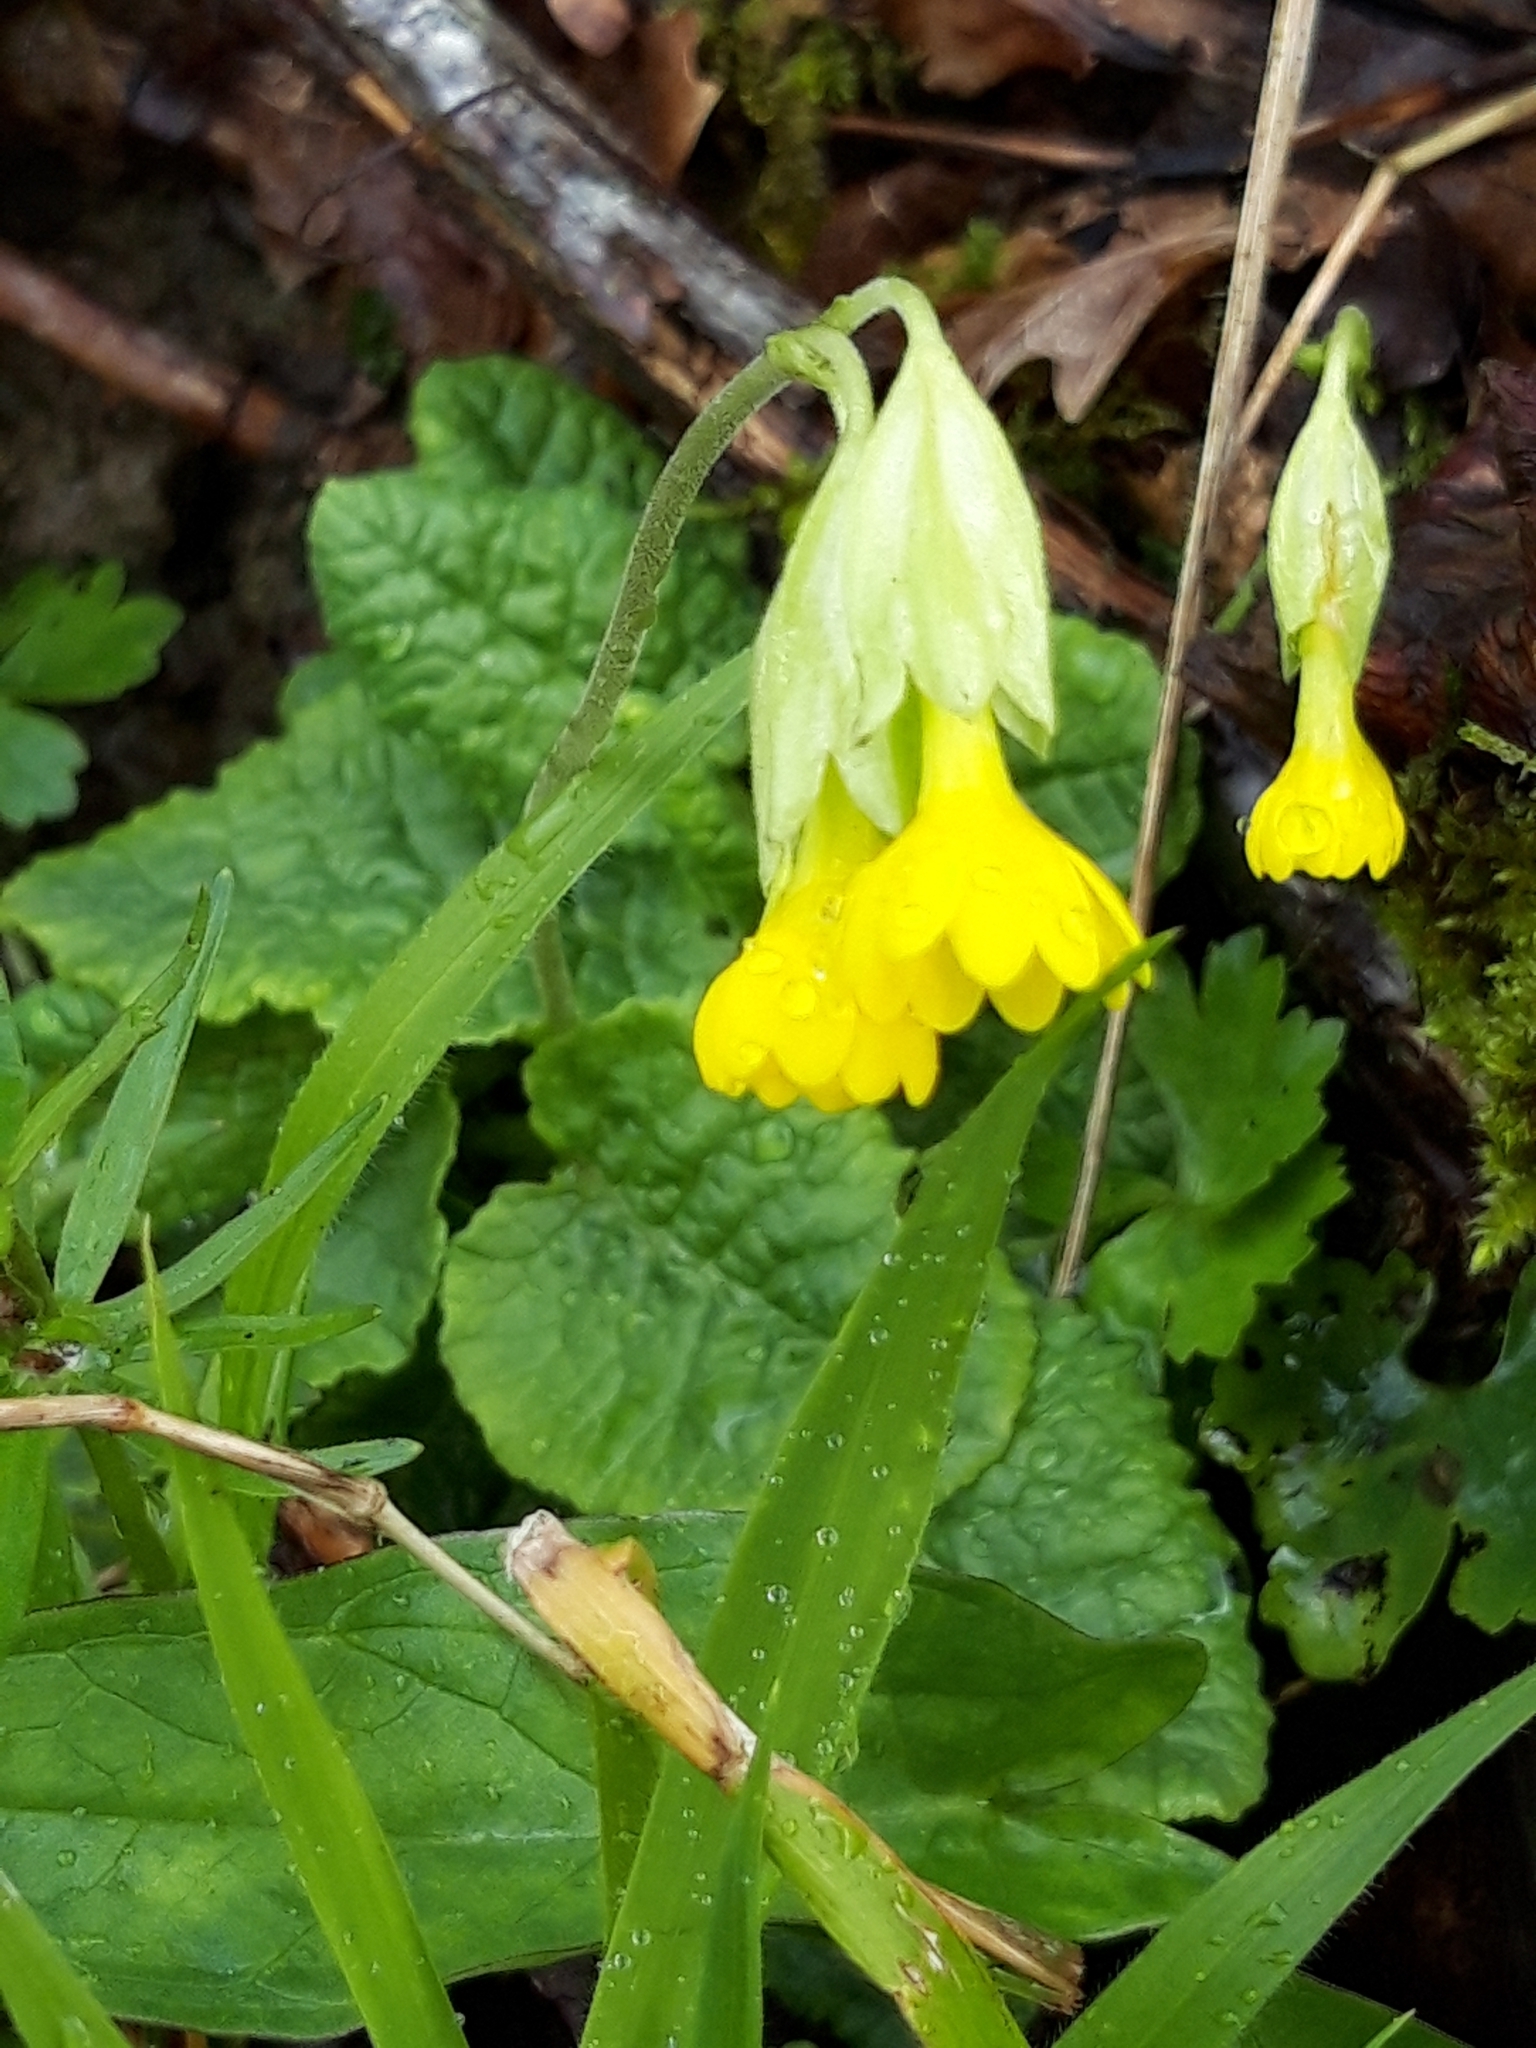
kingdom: Plantae
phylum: Tracheophyta
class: Magnoliopsida
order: Ericales
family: Primulaceae
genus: Primula
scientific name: Primula veris
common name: Cowslip
